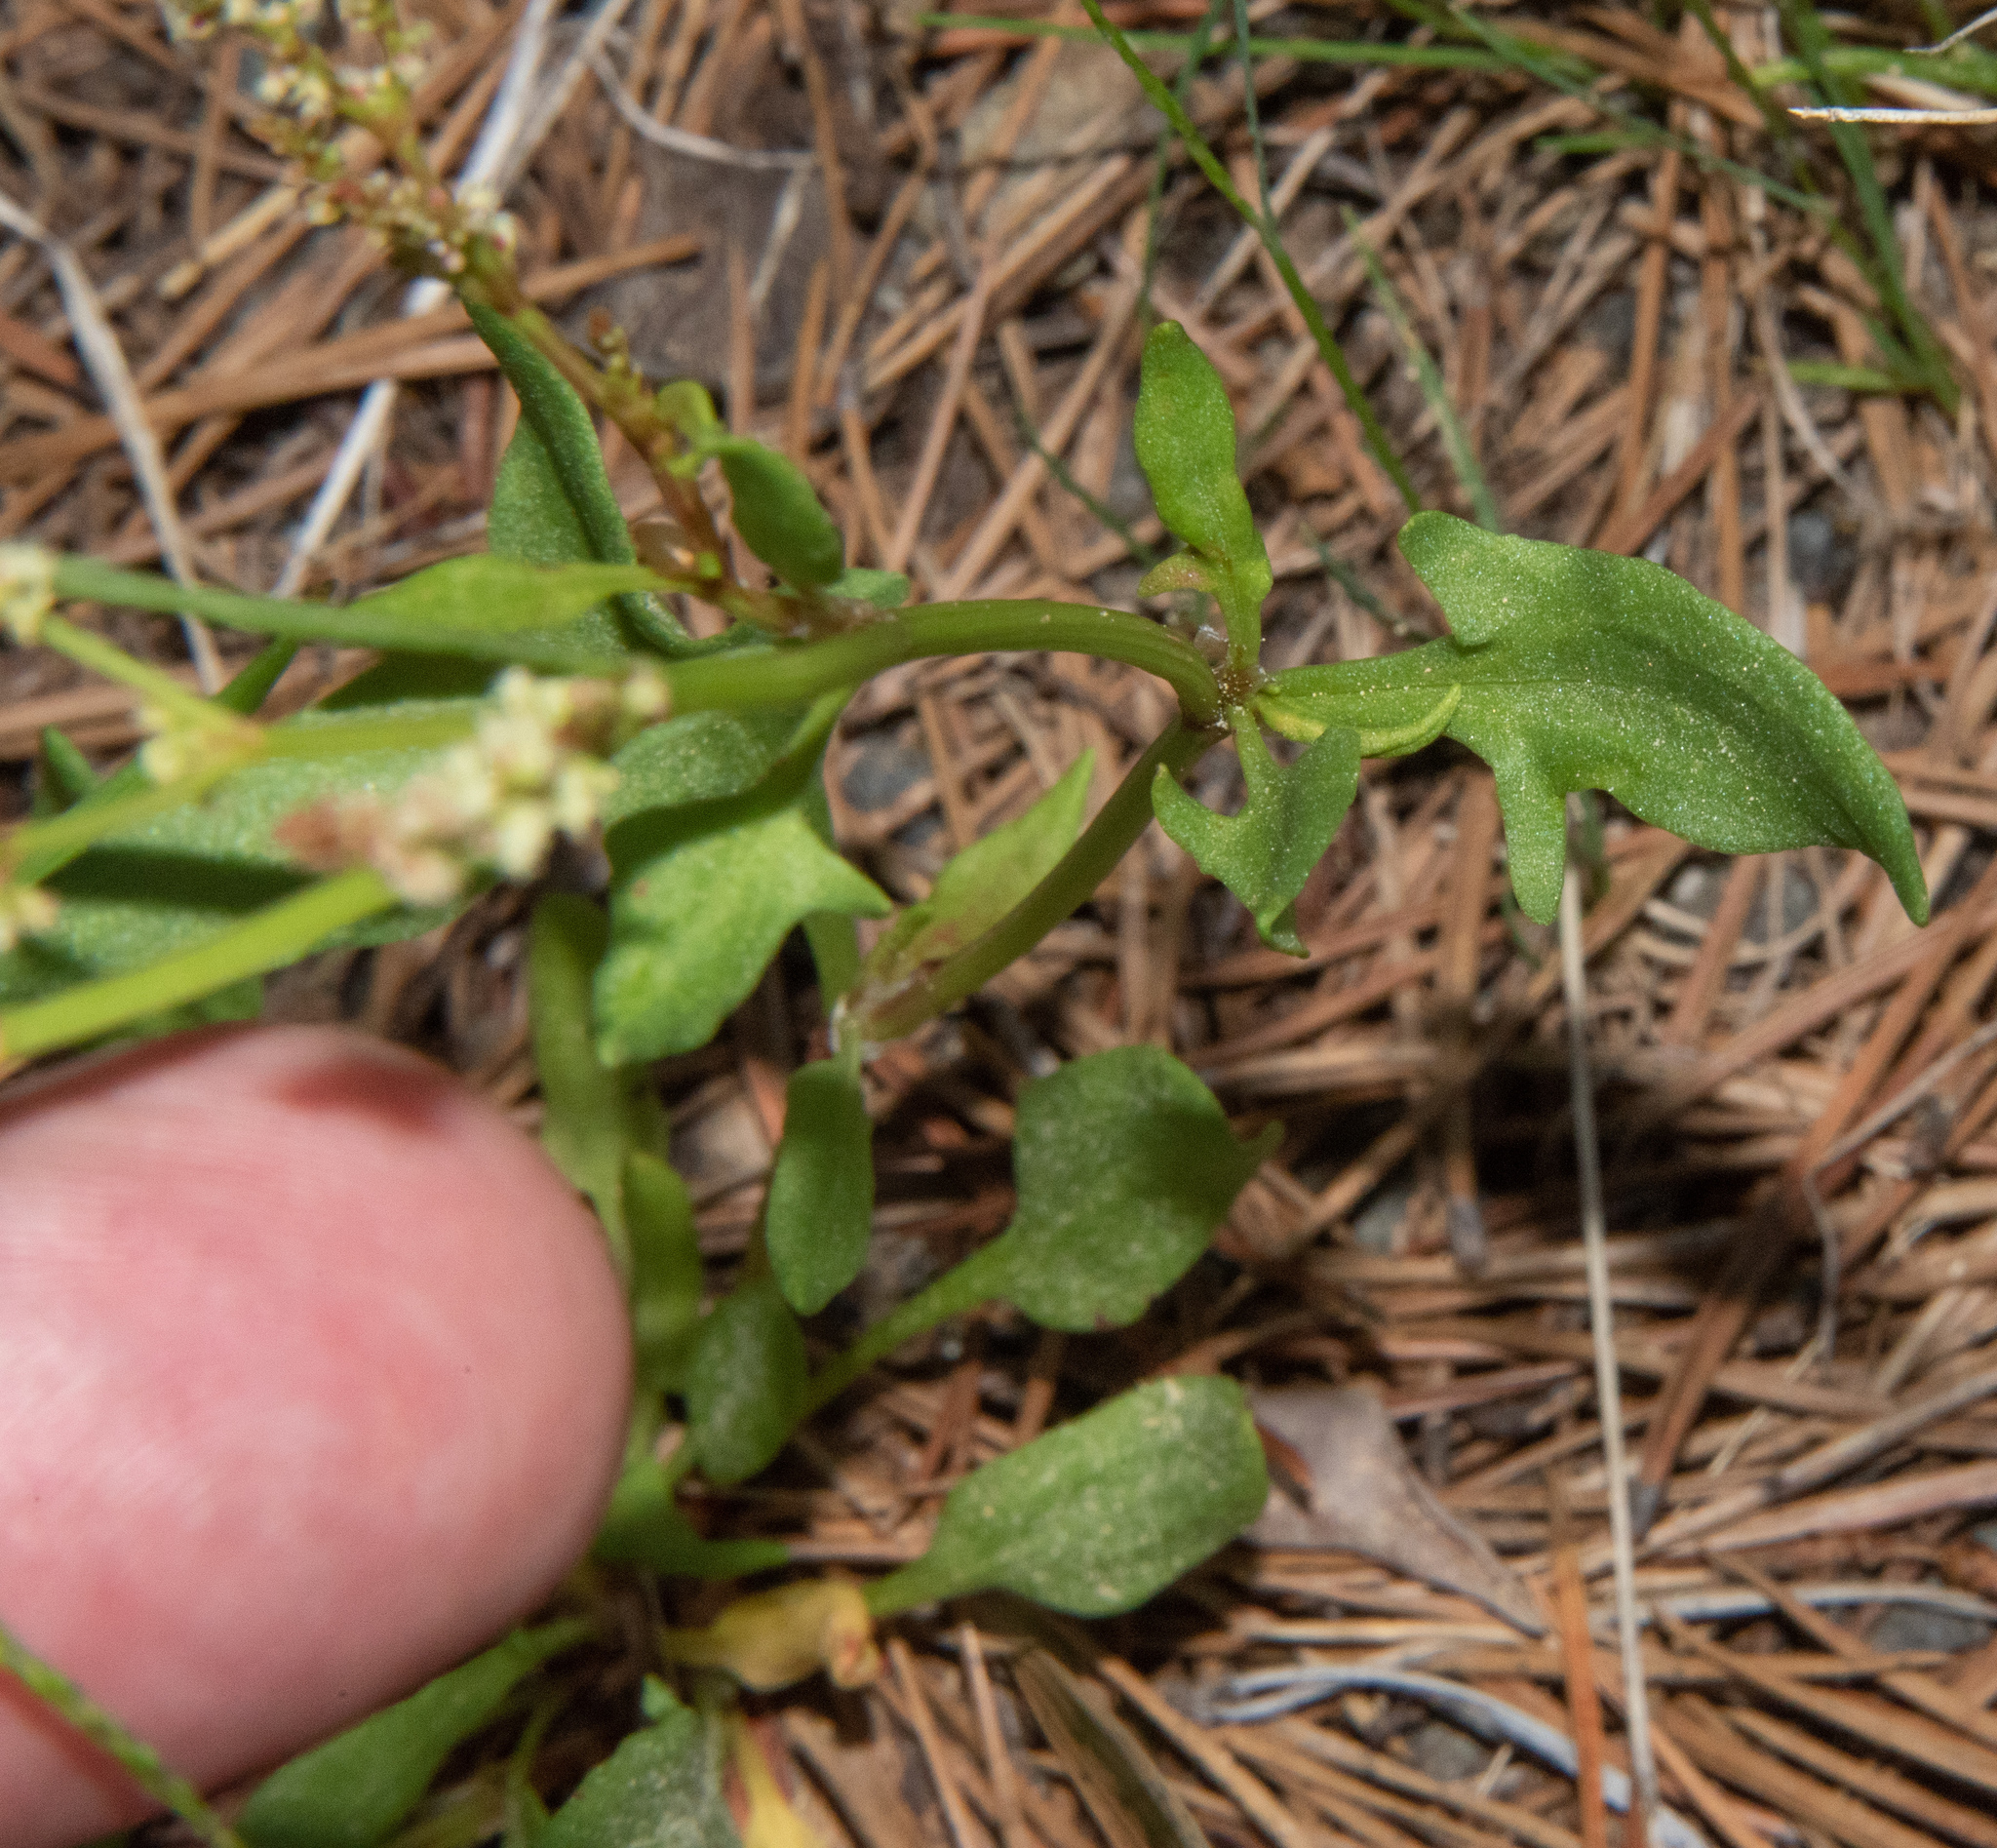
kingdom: Plantae
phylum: Tracheophyta
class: Magnoliopsida
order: Caryophyllales
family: Polygonaceae
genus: Rumex
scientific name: Rumex acetosella
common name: Common sheep sorrel
